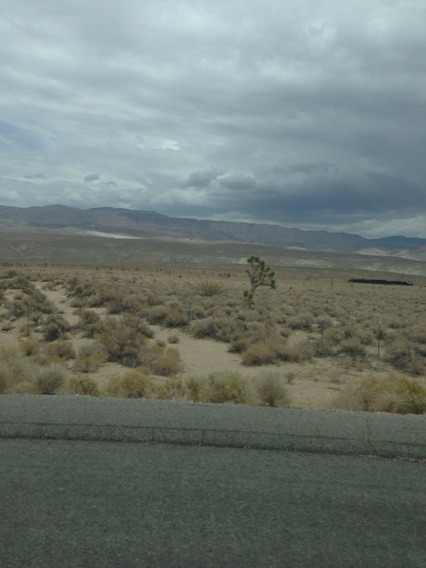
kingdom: Plantae
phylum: Tracheophyta
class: Liliopsida
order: Asparagales
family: Asparagaceae
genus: Yucca
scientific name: Yucca brevifolia
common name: Joshua tree
